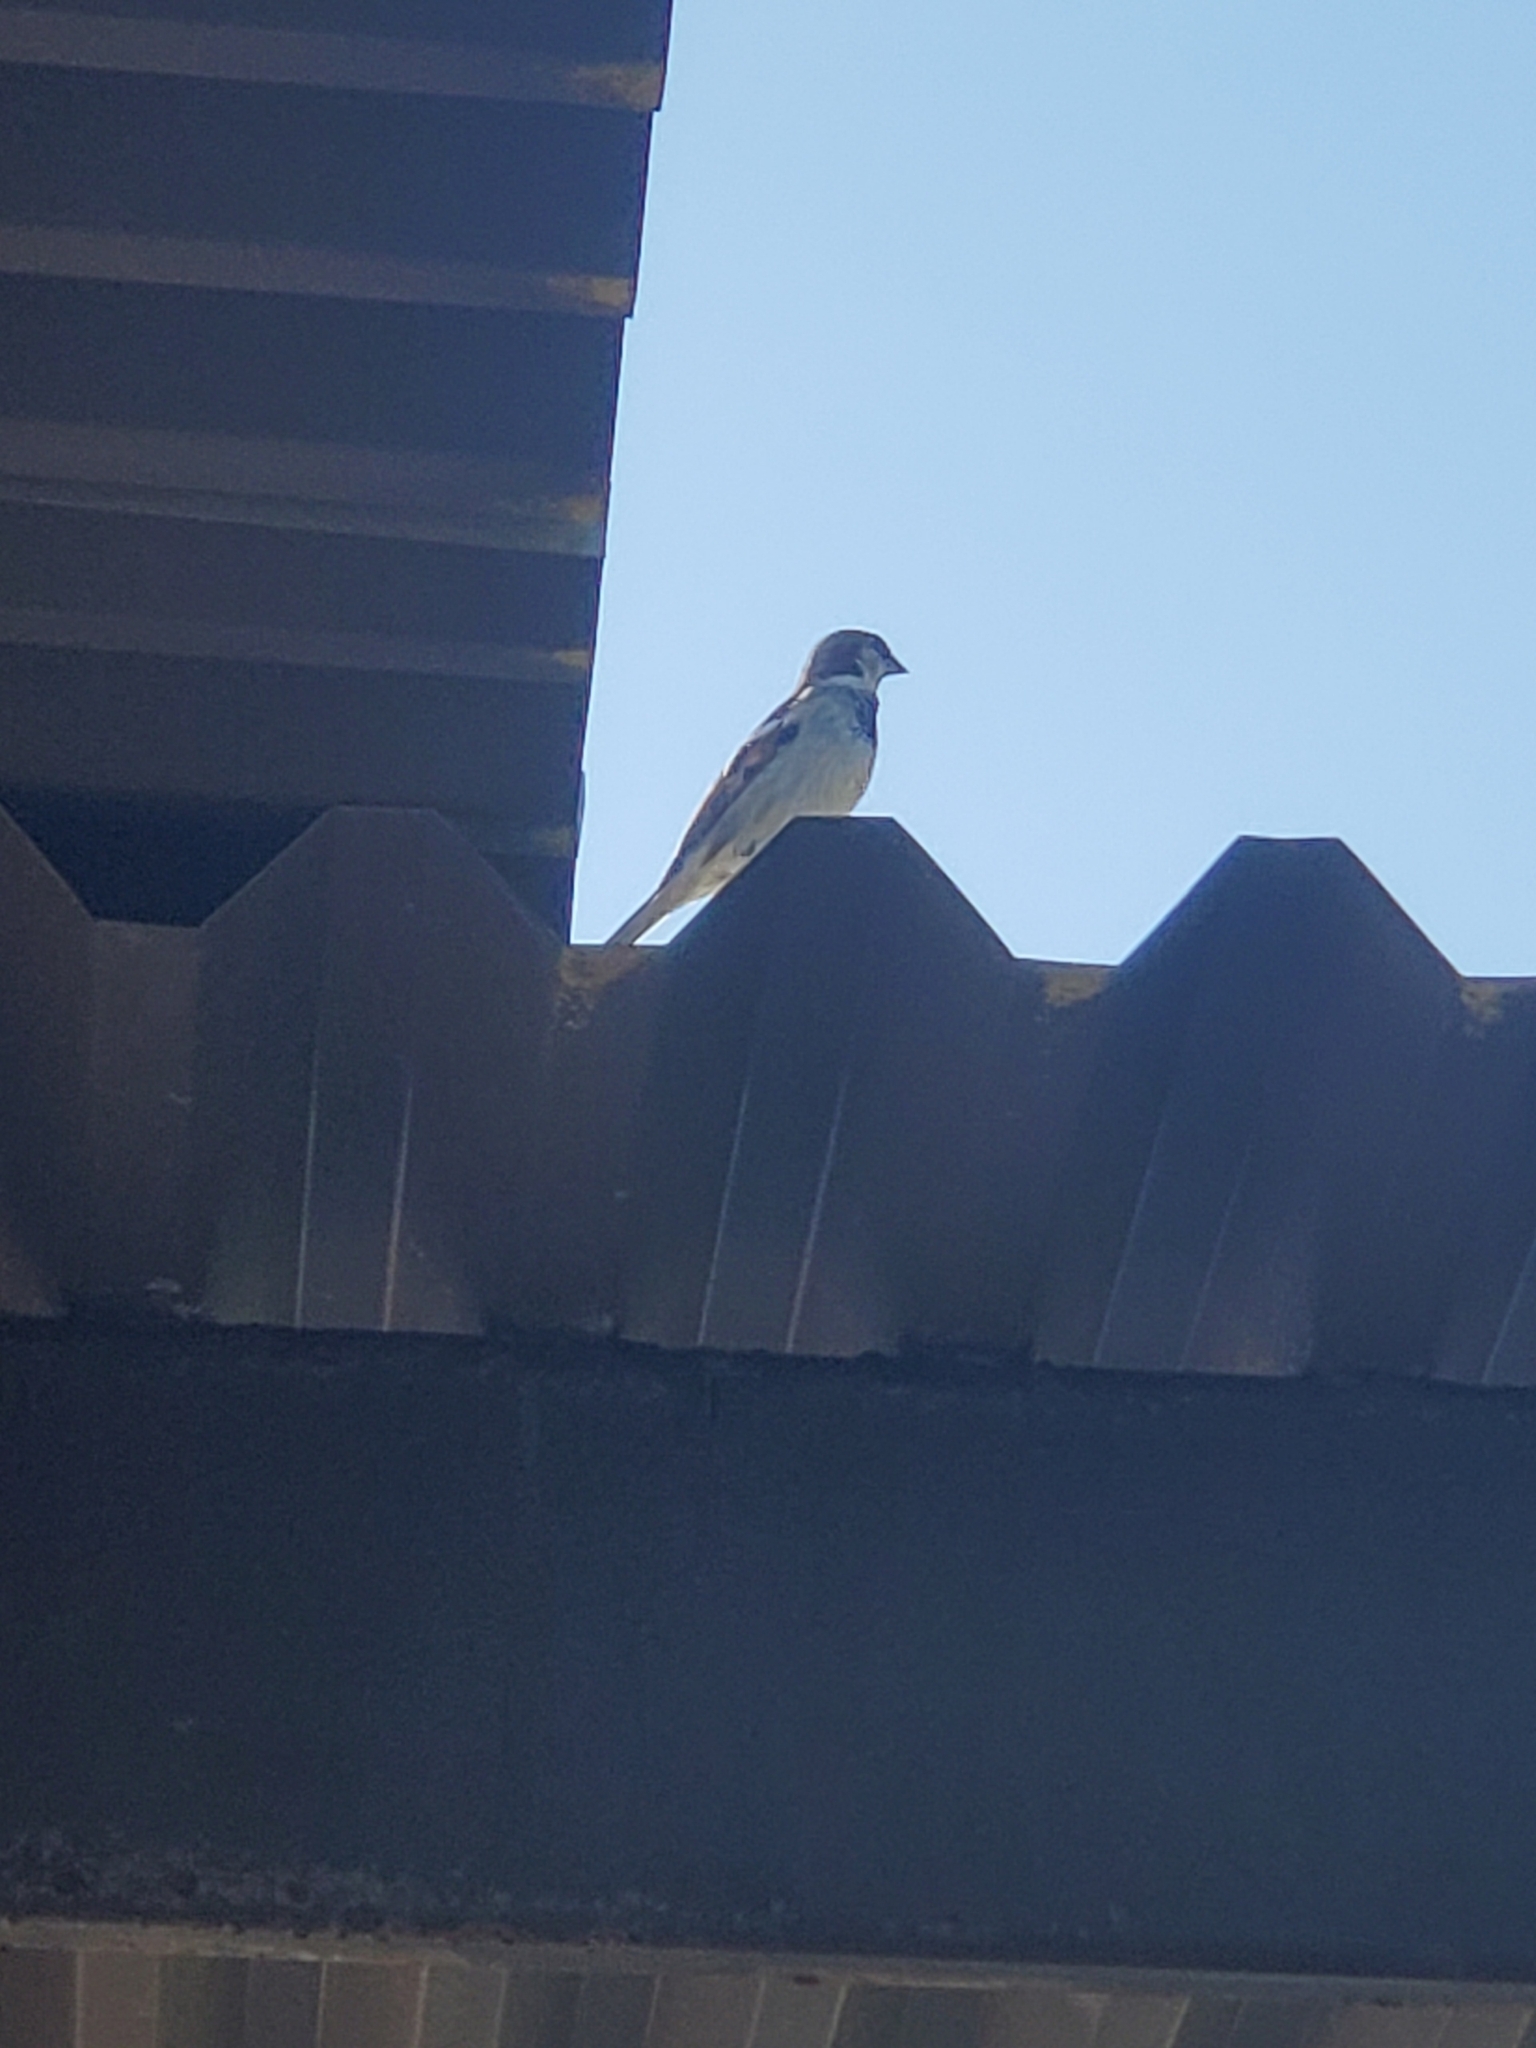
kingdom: Animalia
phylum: Chordata
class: Aves
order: Passeriformes
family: Passeridae
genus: Passer
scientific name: Passer domesticus
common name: House sparrow
